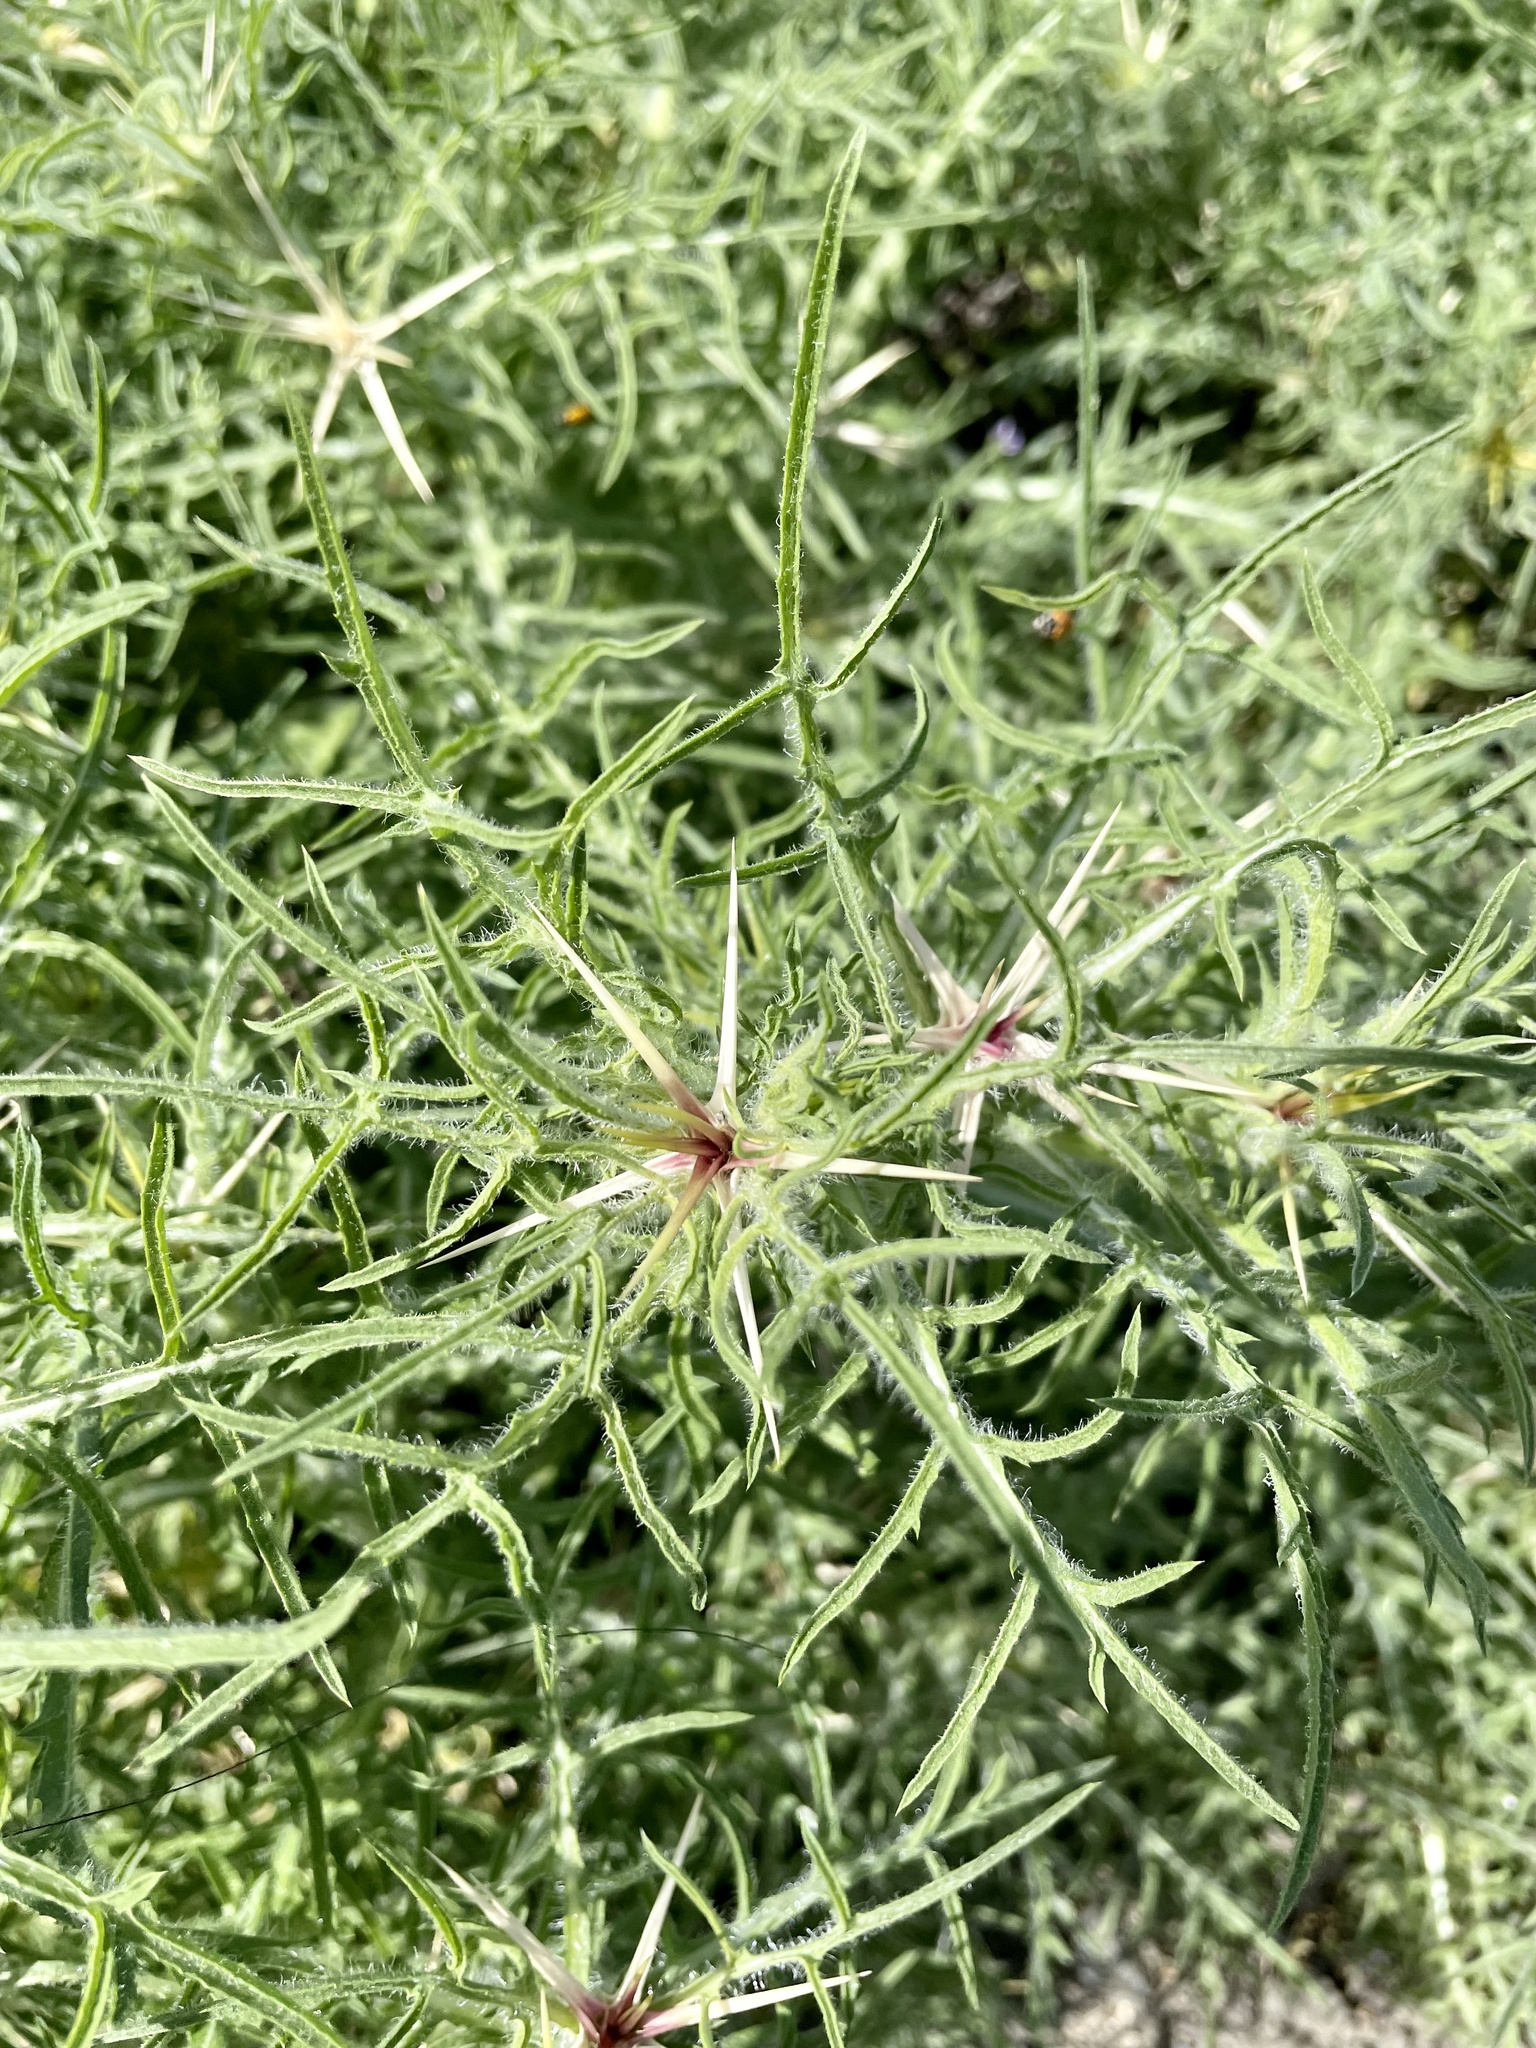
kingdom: Plantae
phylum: Tracheophyta
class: Magnoliopsida
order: Asterales
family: Asteraceae
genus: Centaurea
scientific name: Centaurea calcitrapa
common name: Red star-thistle
